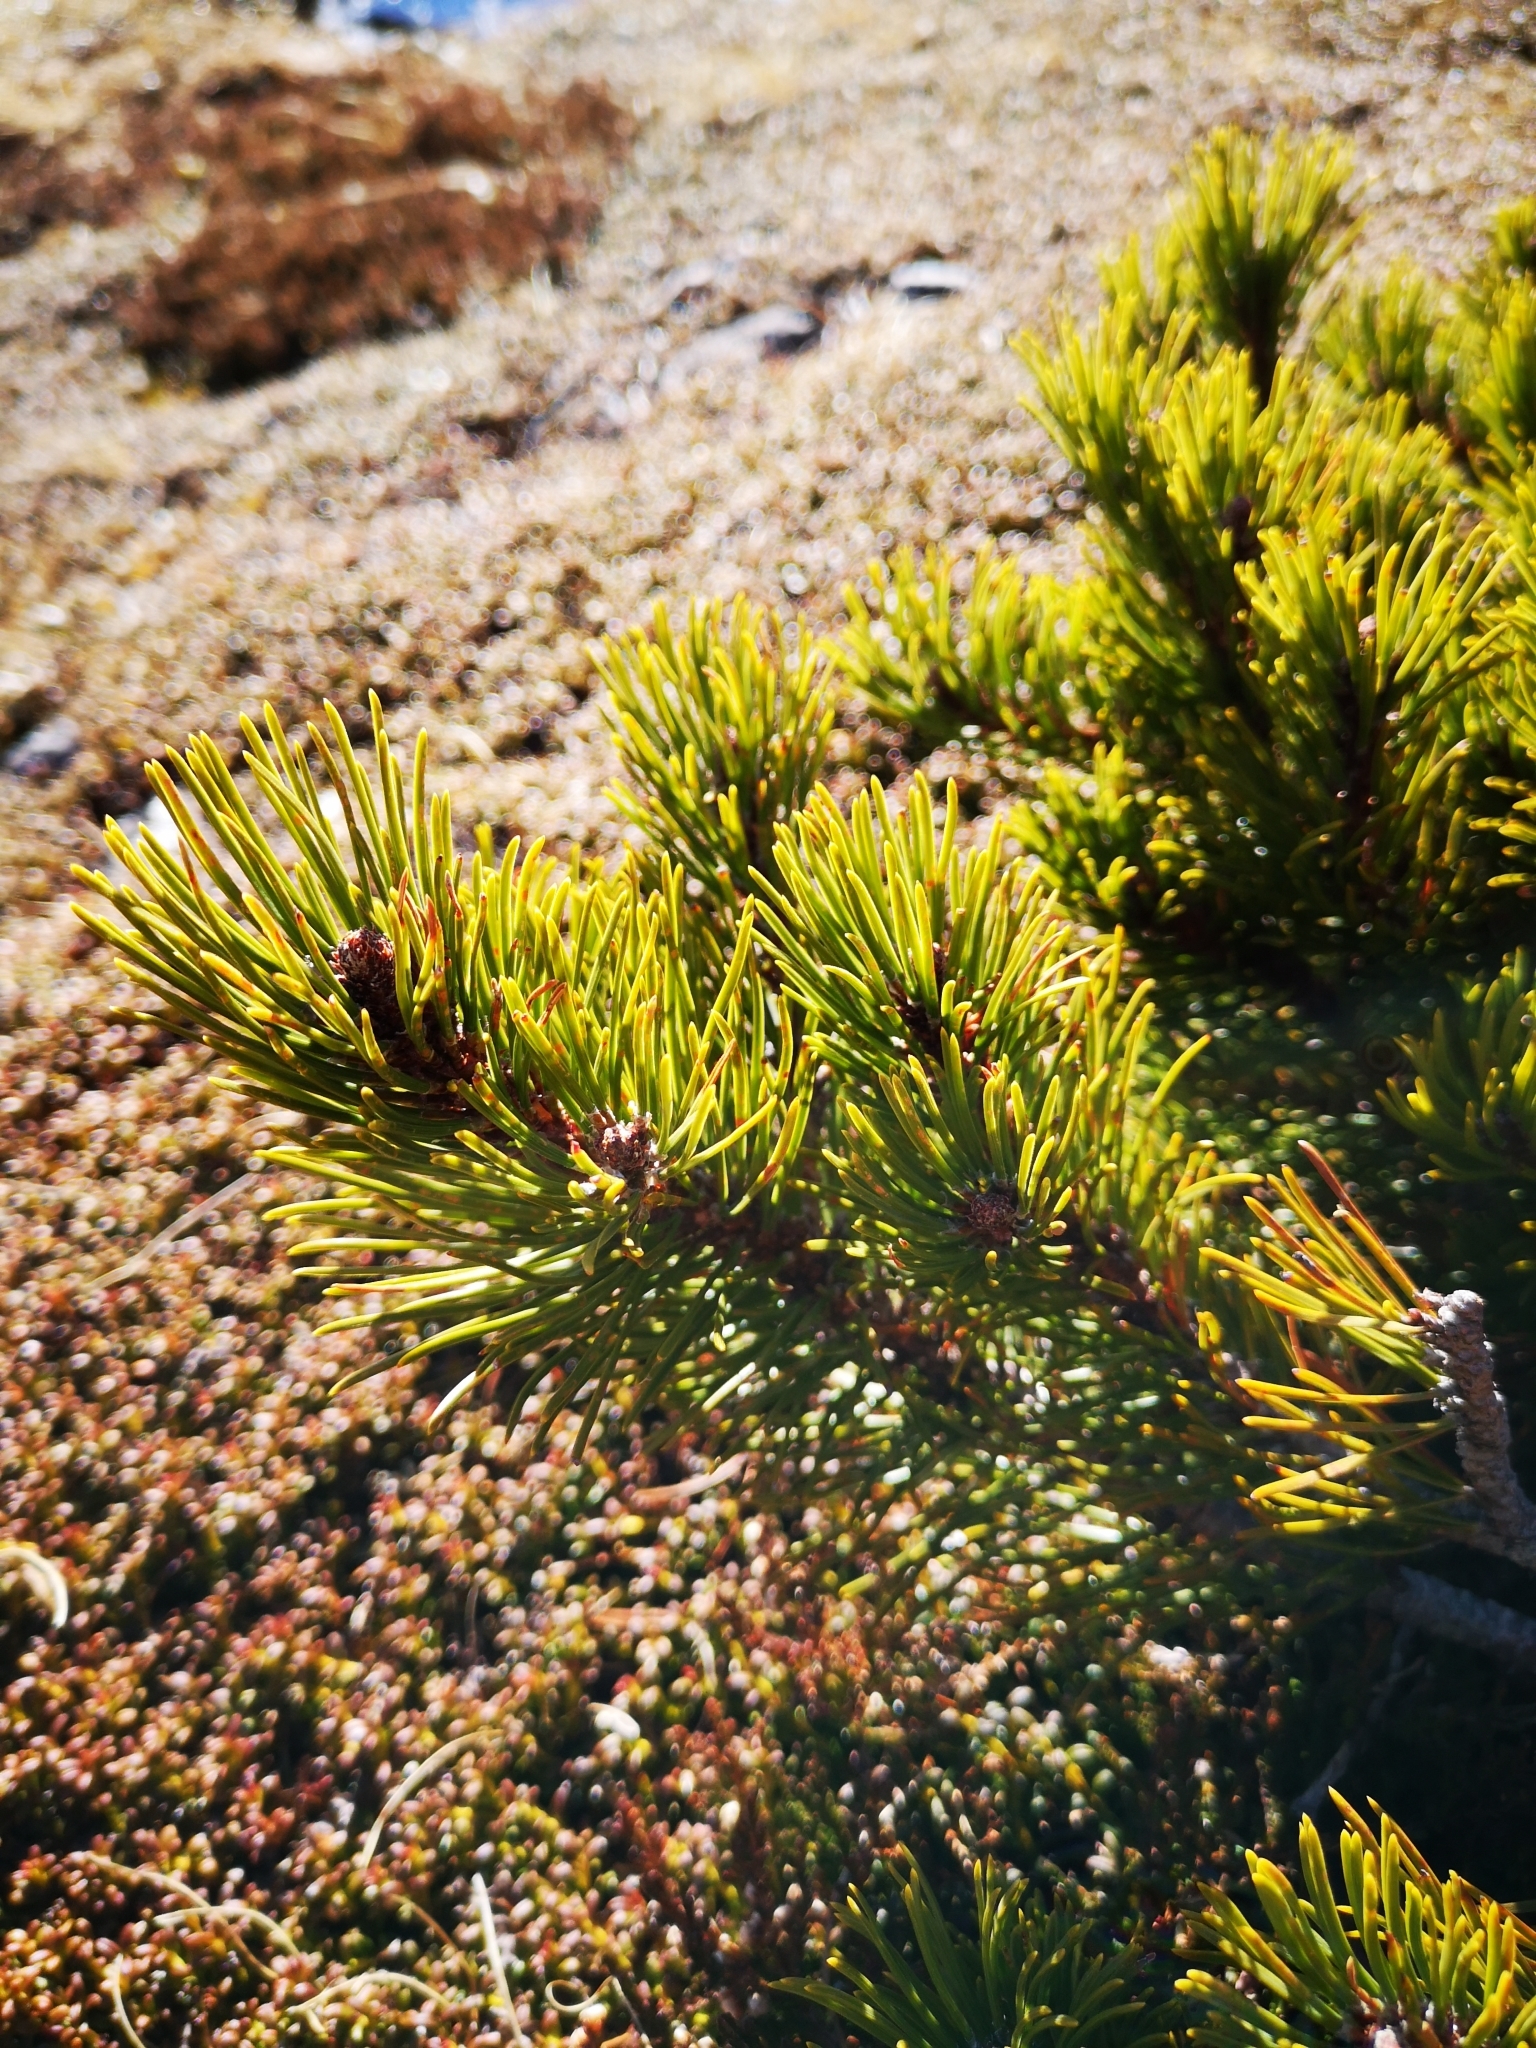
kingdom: Plantae
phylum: Tracheophyta
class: Pinopsida
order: Pinales
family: Pinaceae
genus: Pinus
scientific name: Pinus mugo
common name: Mugo pine
